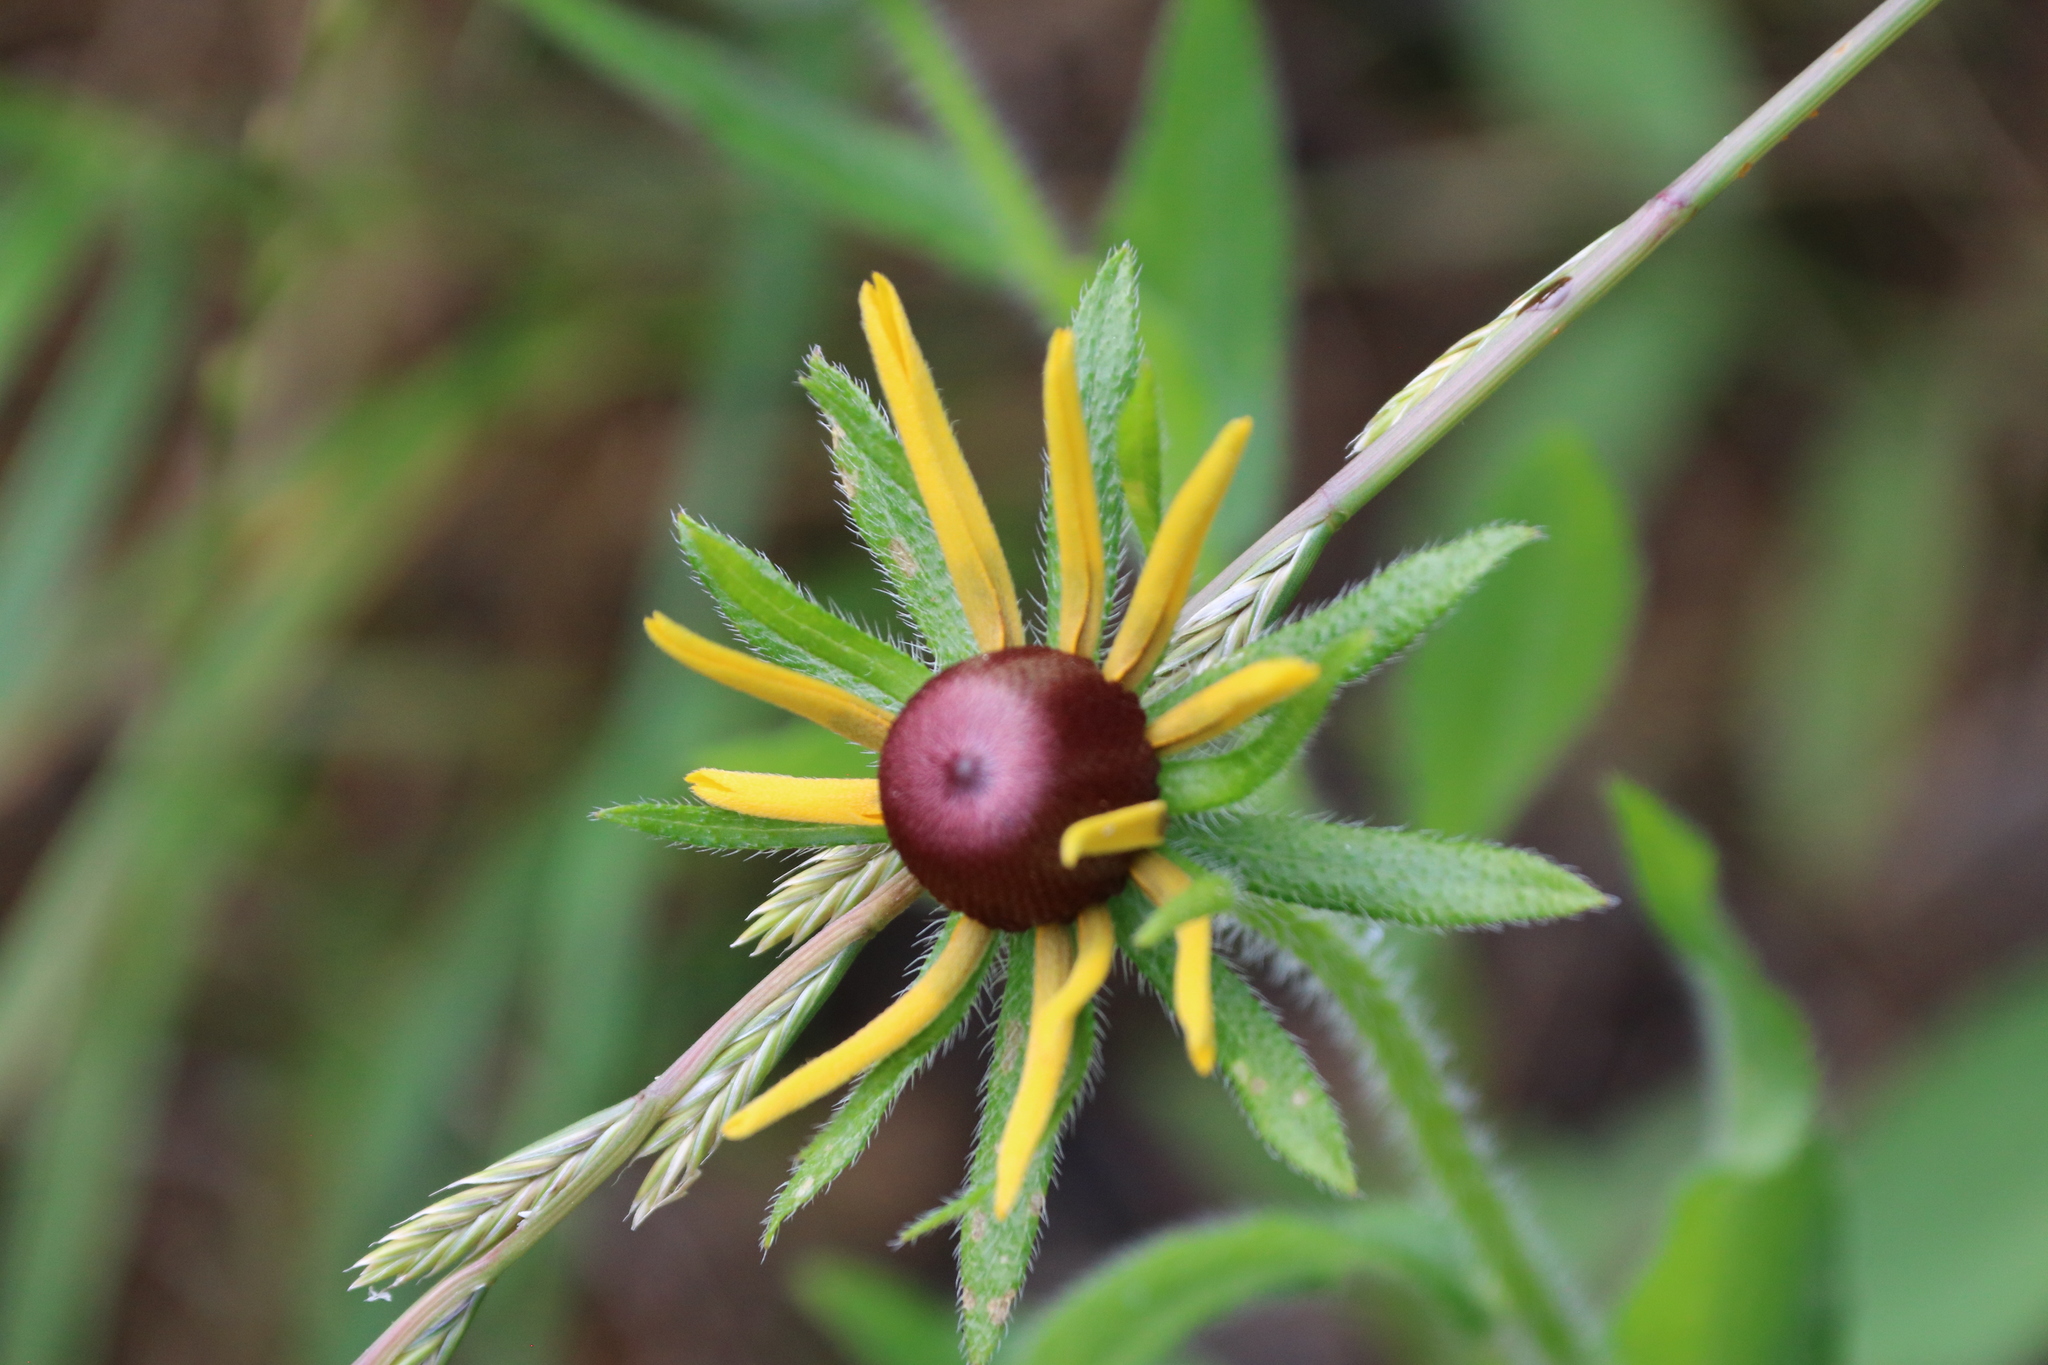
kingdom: Plantae
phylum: Tracheophyta
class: Magnoliopsida
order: Asterales
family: Asteraceae
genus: Rudbeckia
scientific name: Rudbeckia hirta
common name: Black-eyed-susan
